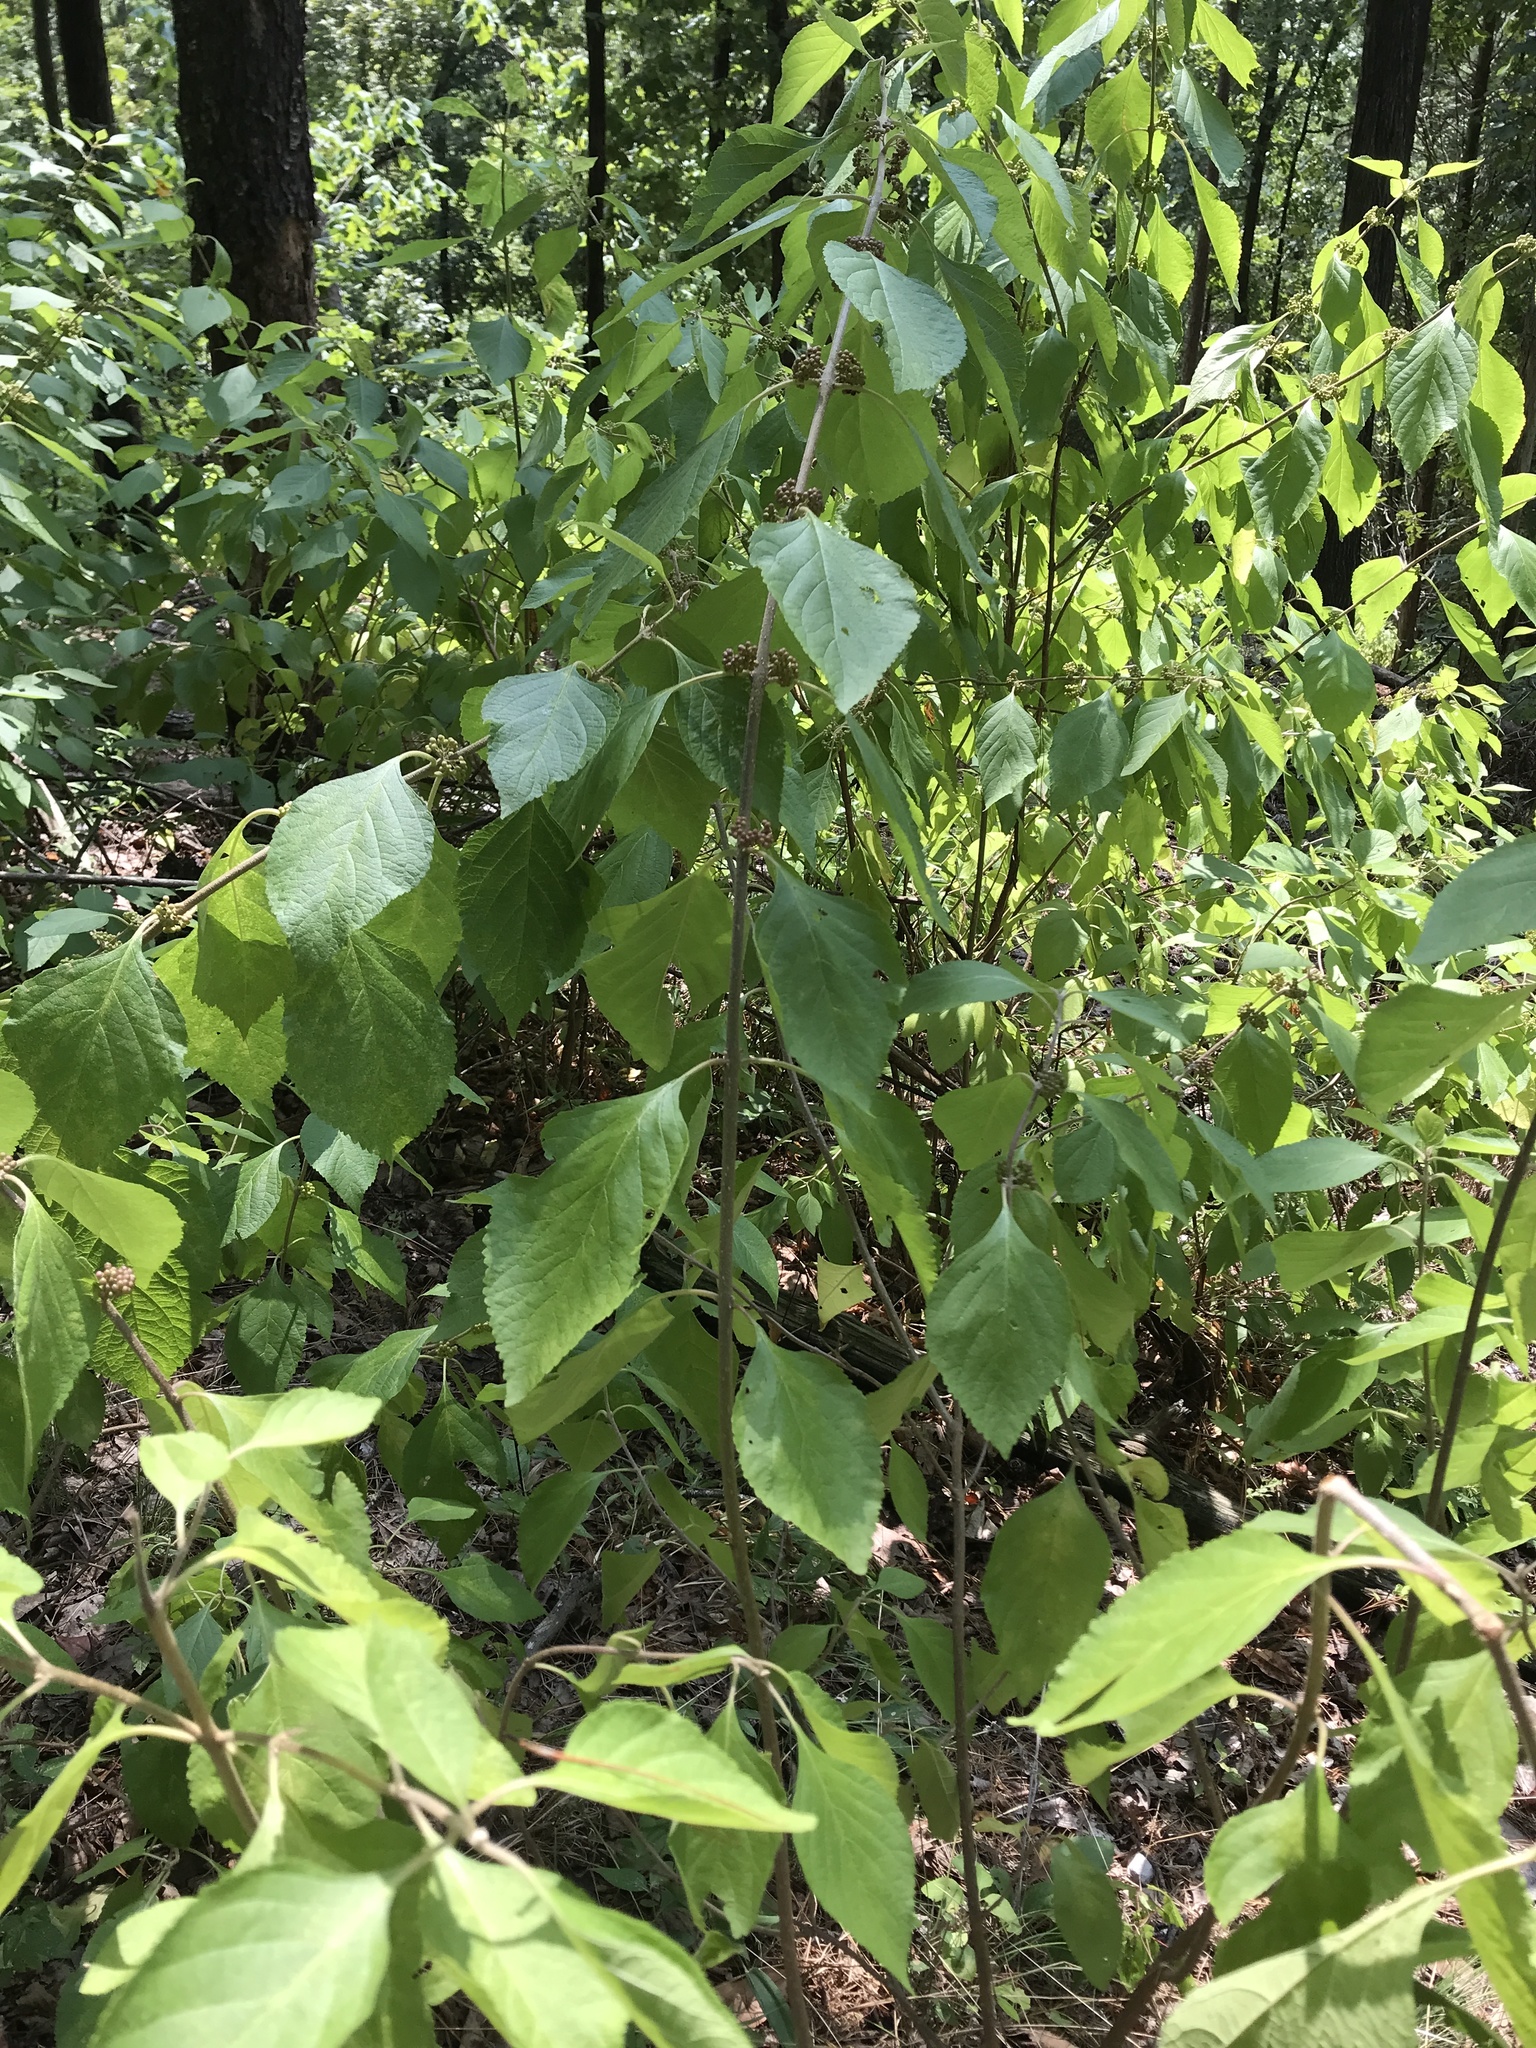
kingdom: Plantae
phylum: Tracheophyta
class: Magnoliopsida
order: Lamiales
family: Lamiaceae
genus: Callicarpa
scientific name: Callicarpa americana
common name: American beautyberry
